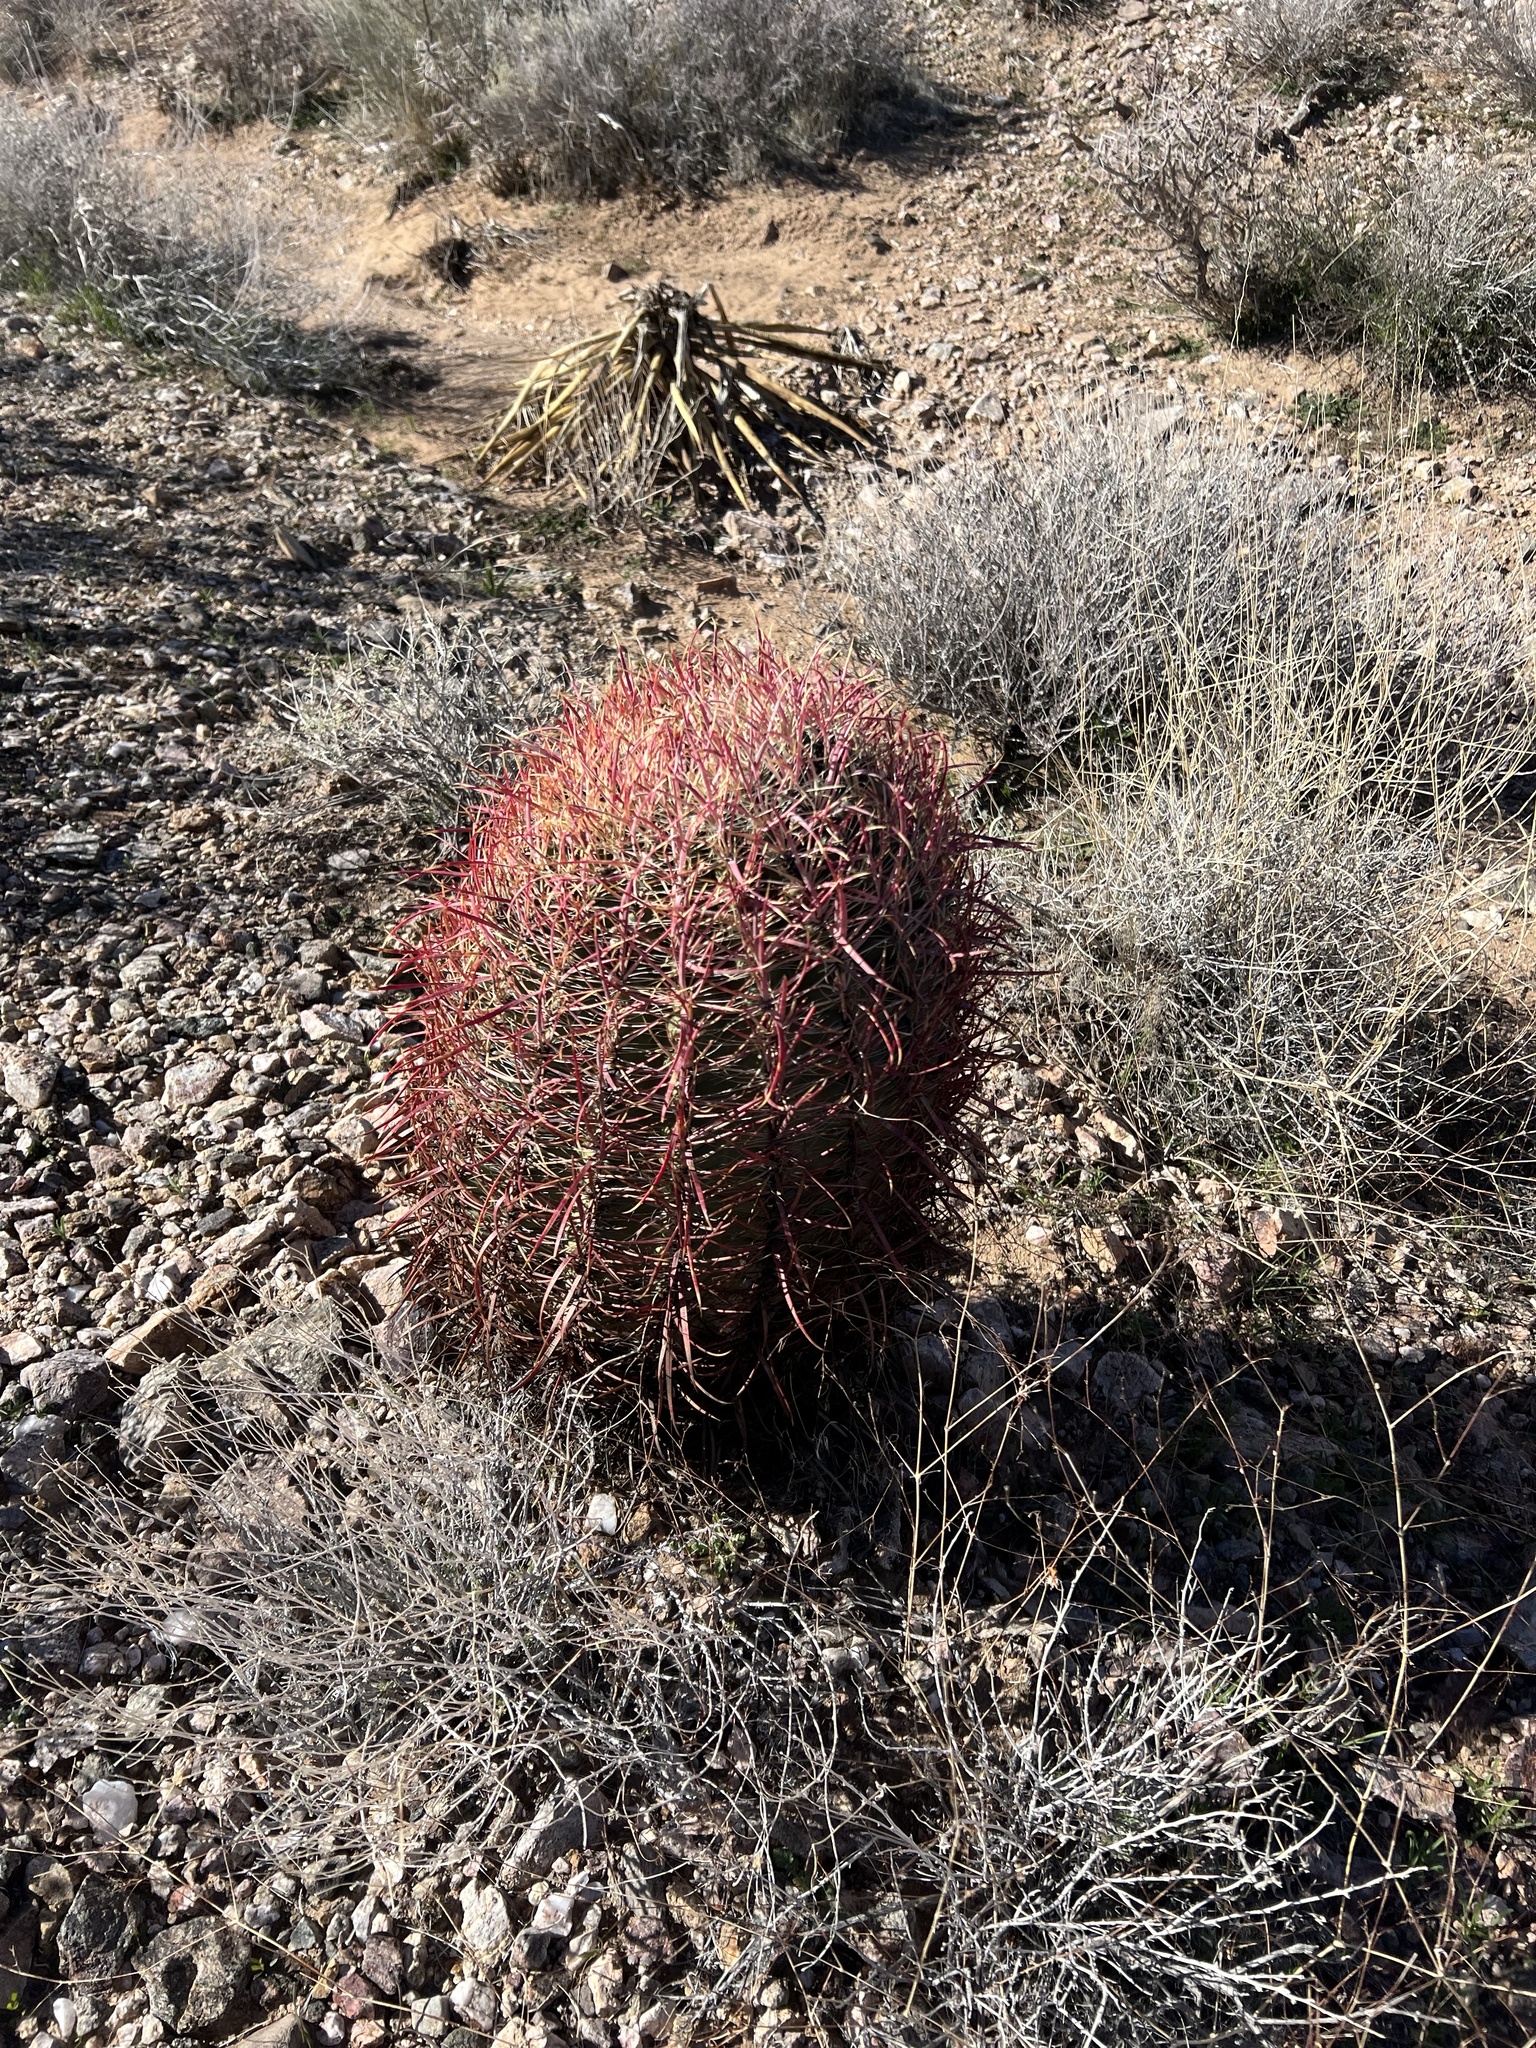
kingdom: Plantae
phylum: Tracheophyta
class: Magnoliopsida
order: Caryophyllales
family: Cactaceae
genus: Ferocactus
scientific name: Ferocactus cylindraceus
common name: California barrel cactus
